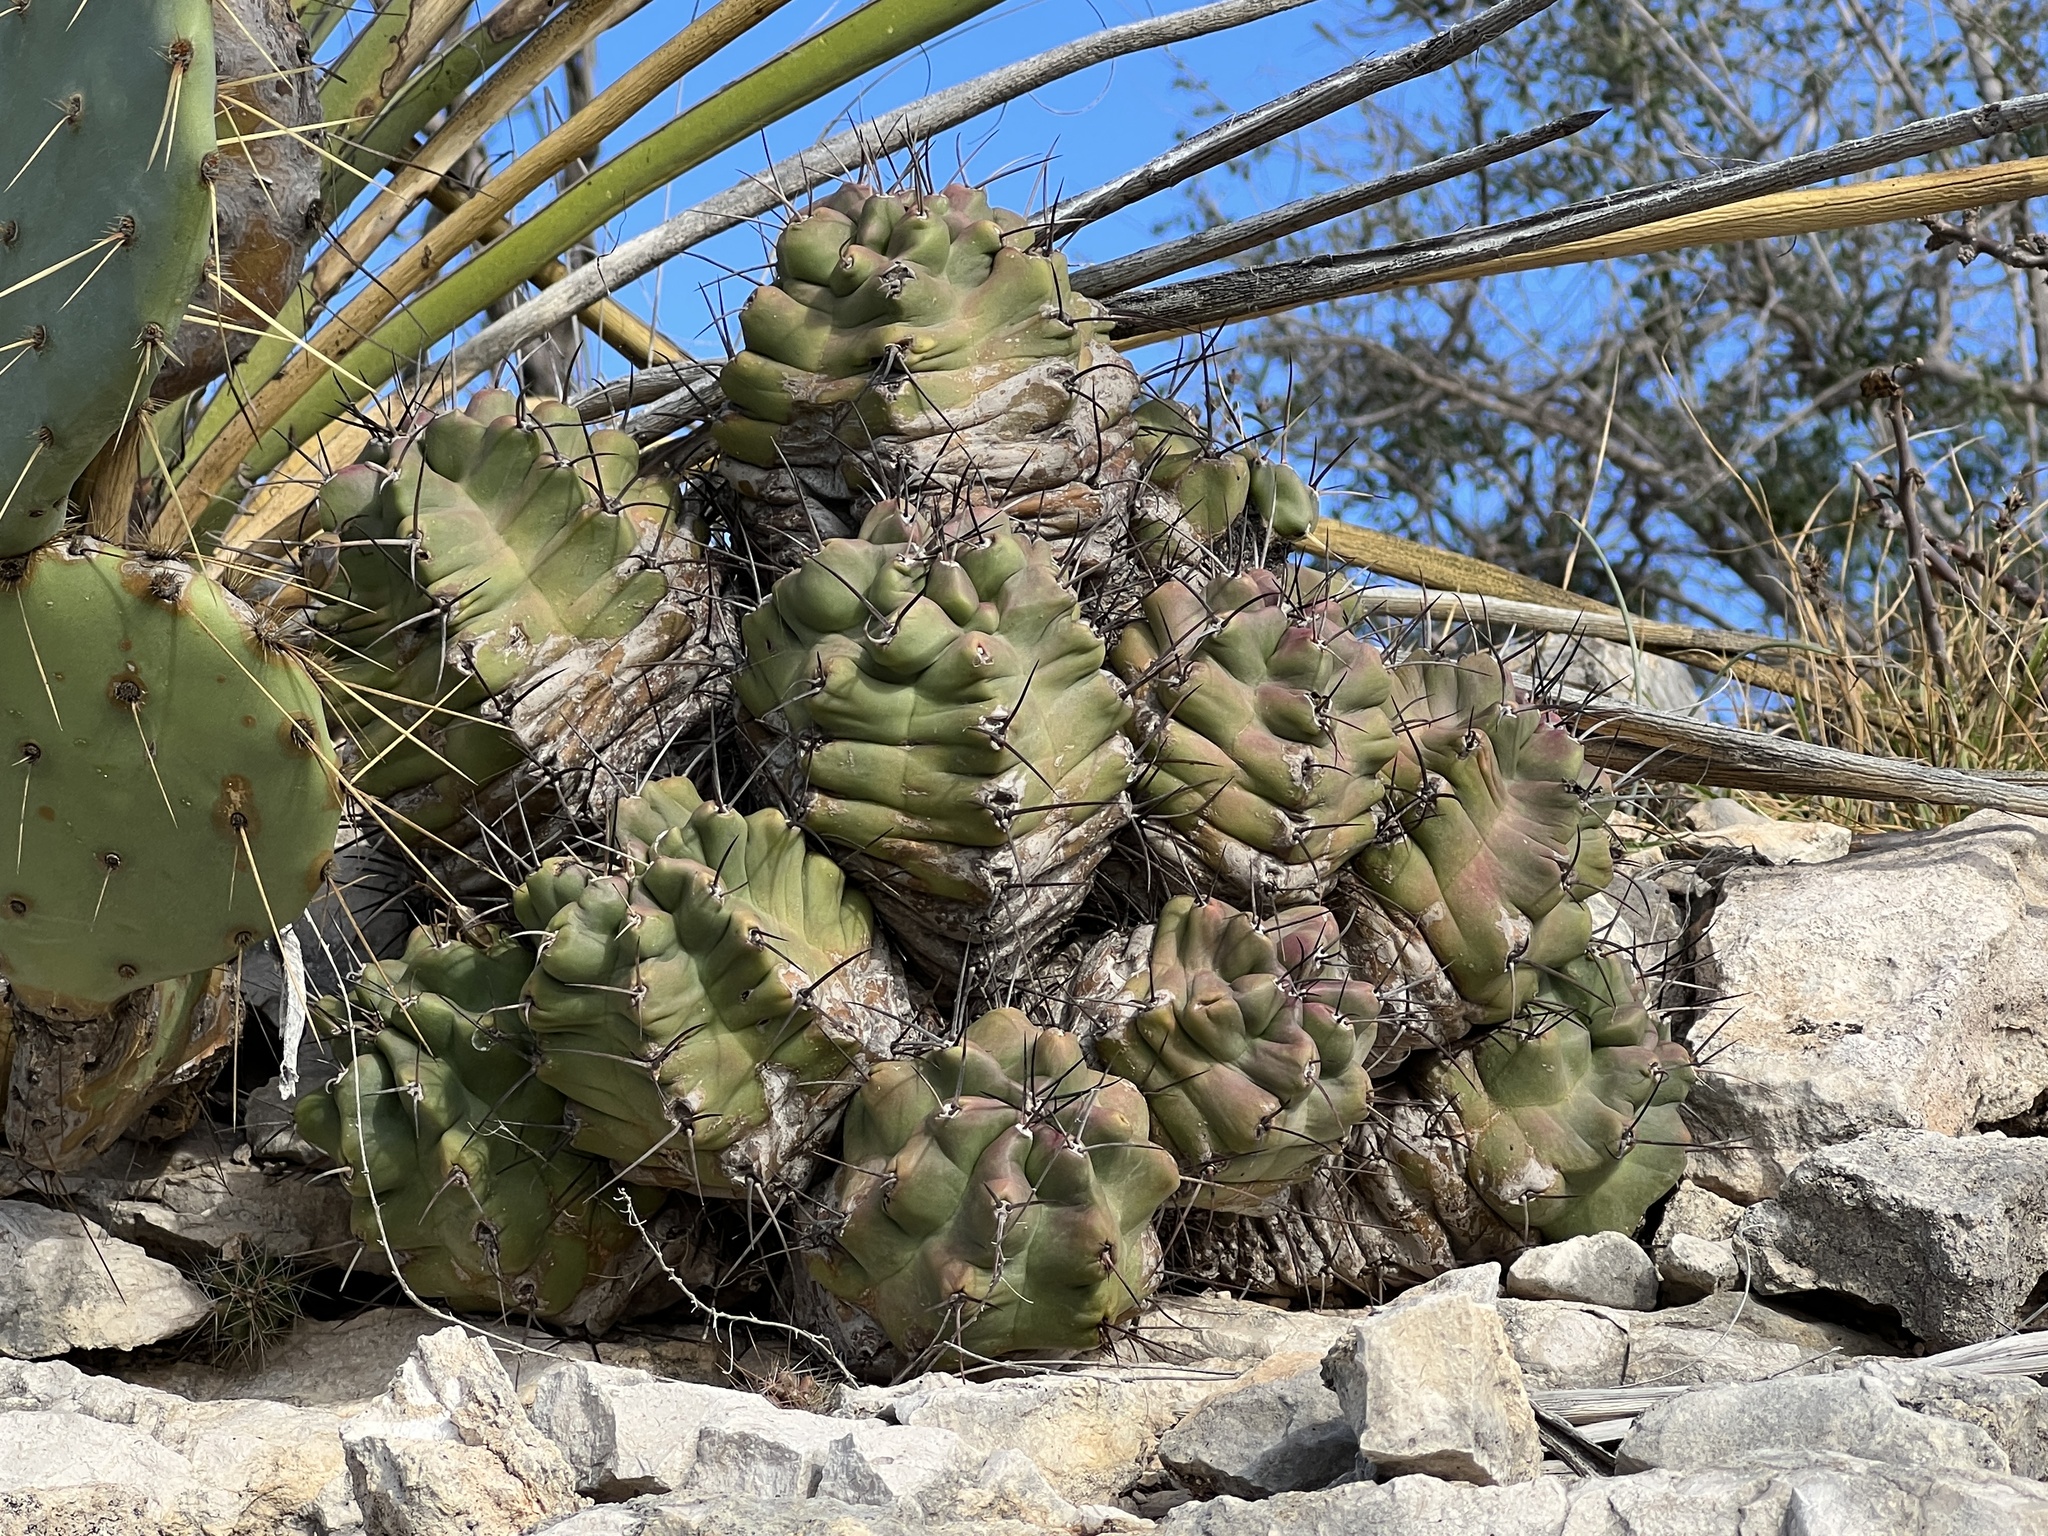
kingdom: Plantae
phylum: Tracheophyta
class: Magnoliopsida
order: Caryophyllales
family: Cactaceae
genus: Echinocereus
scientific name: Echinocereus coccineus
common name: Scarlet hedgehog cactus
